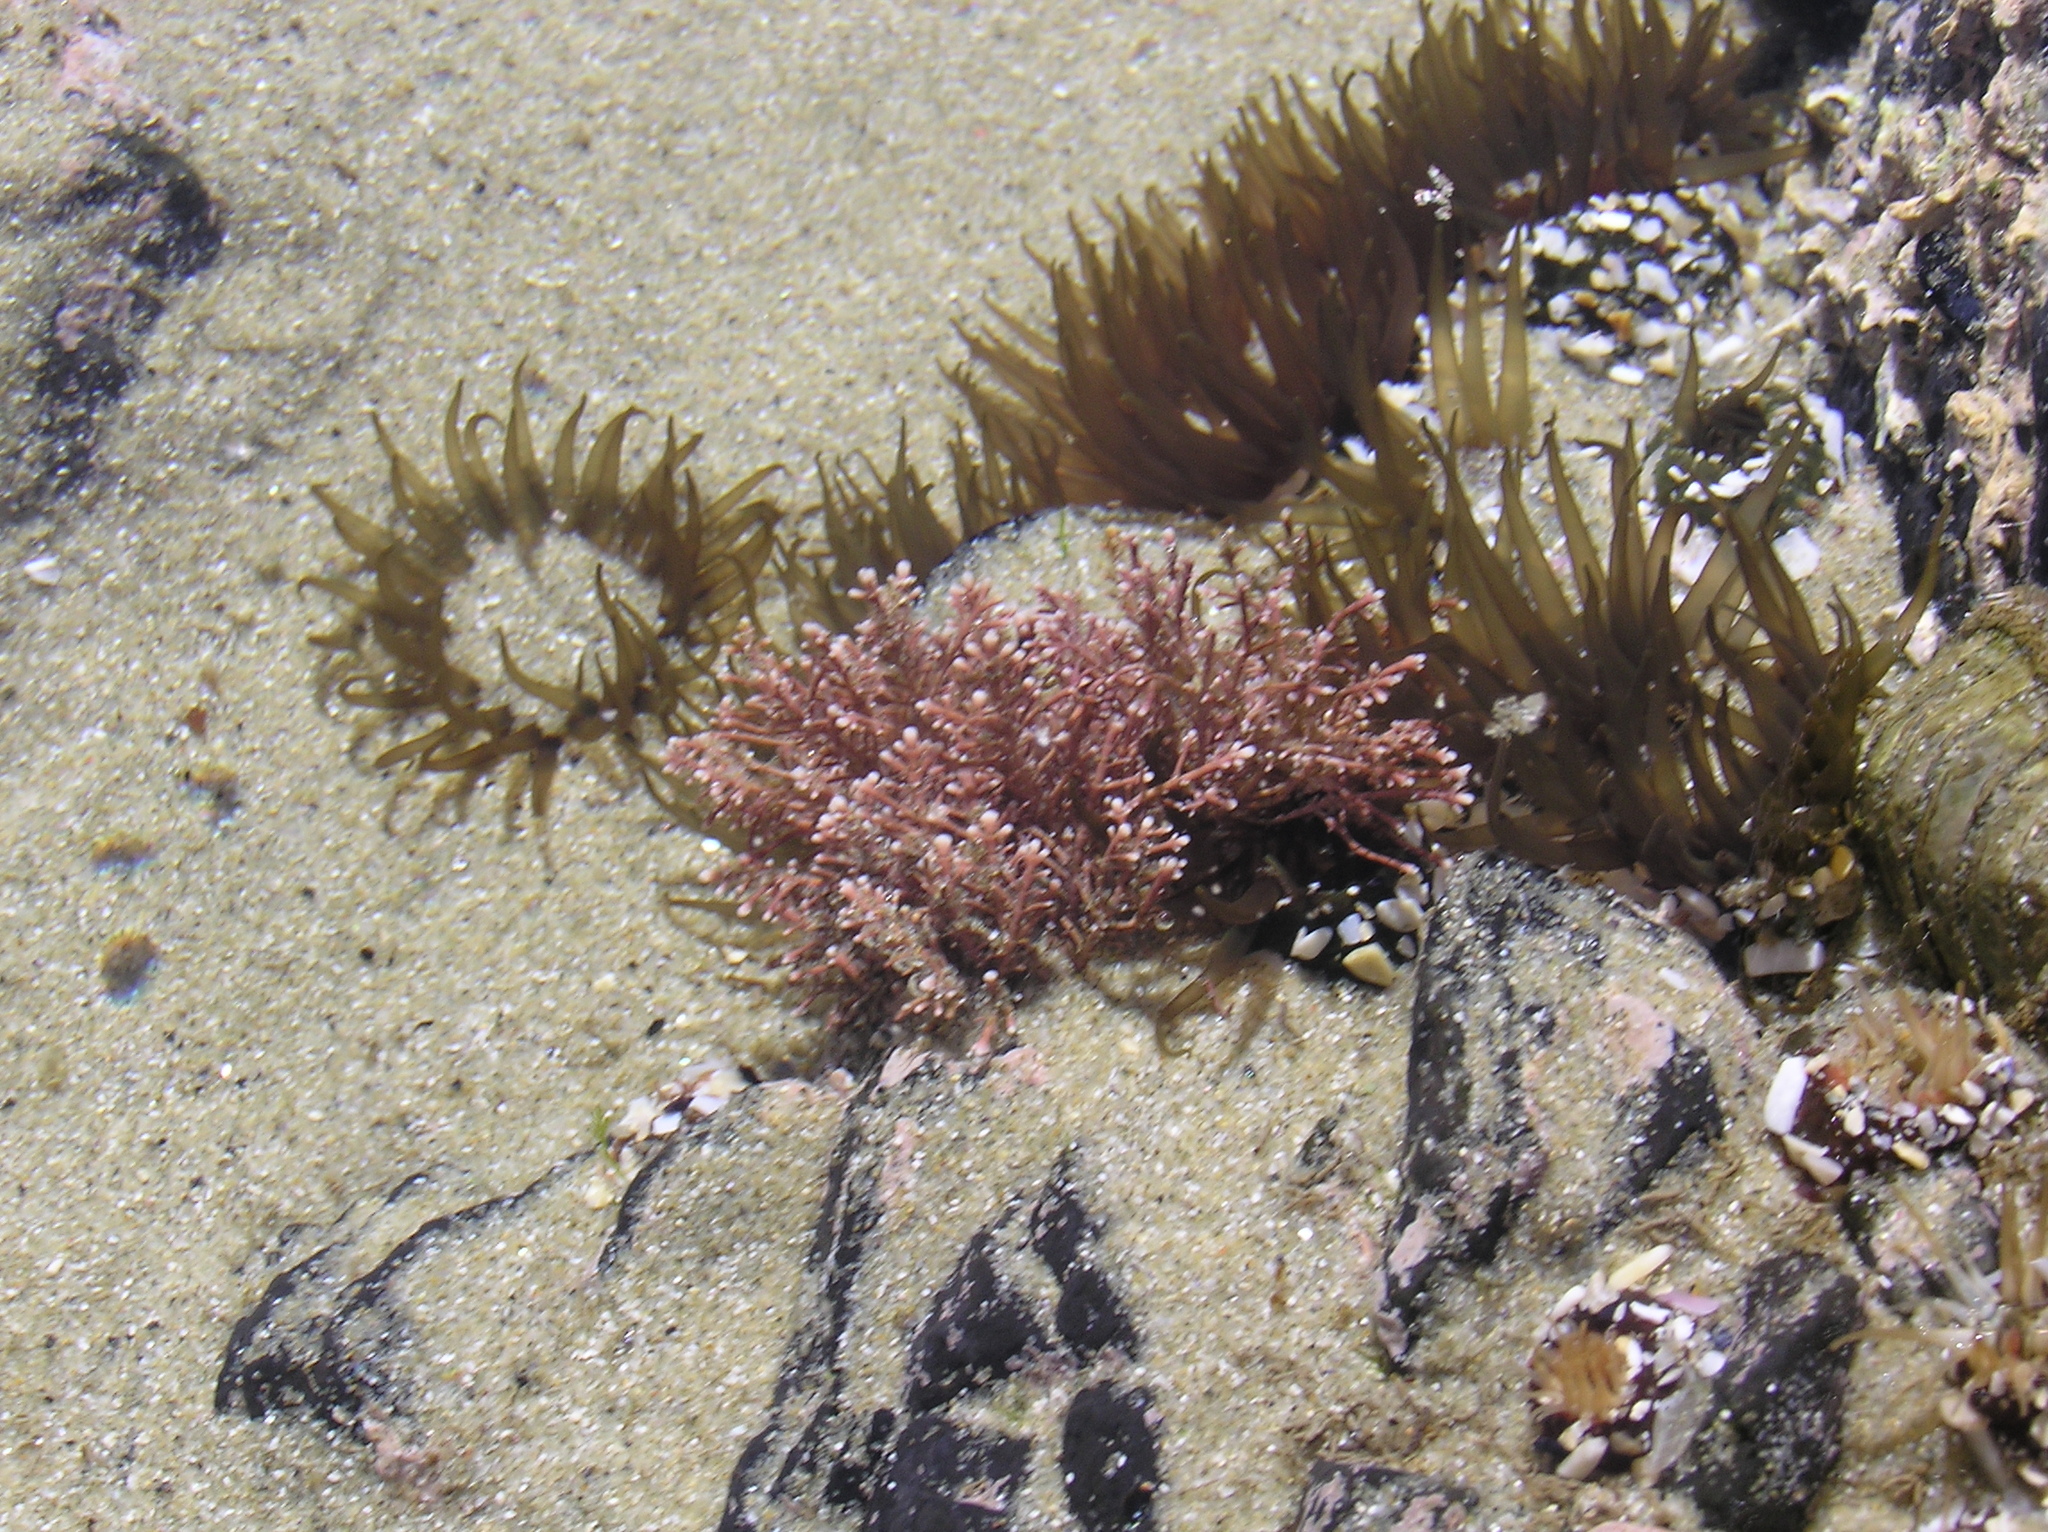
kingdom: Animalia
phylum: Cnidaria
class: Anthozoa
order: Actiniaria
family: Actiniidae
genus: Isactinia
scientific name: Isactinia olivacea
